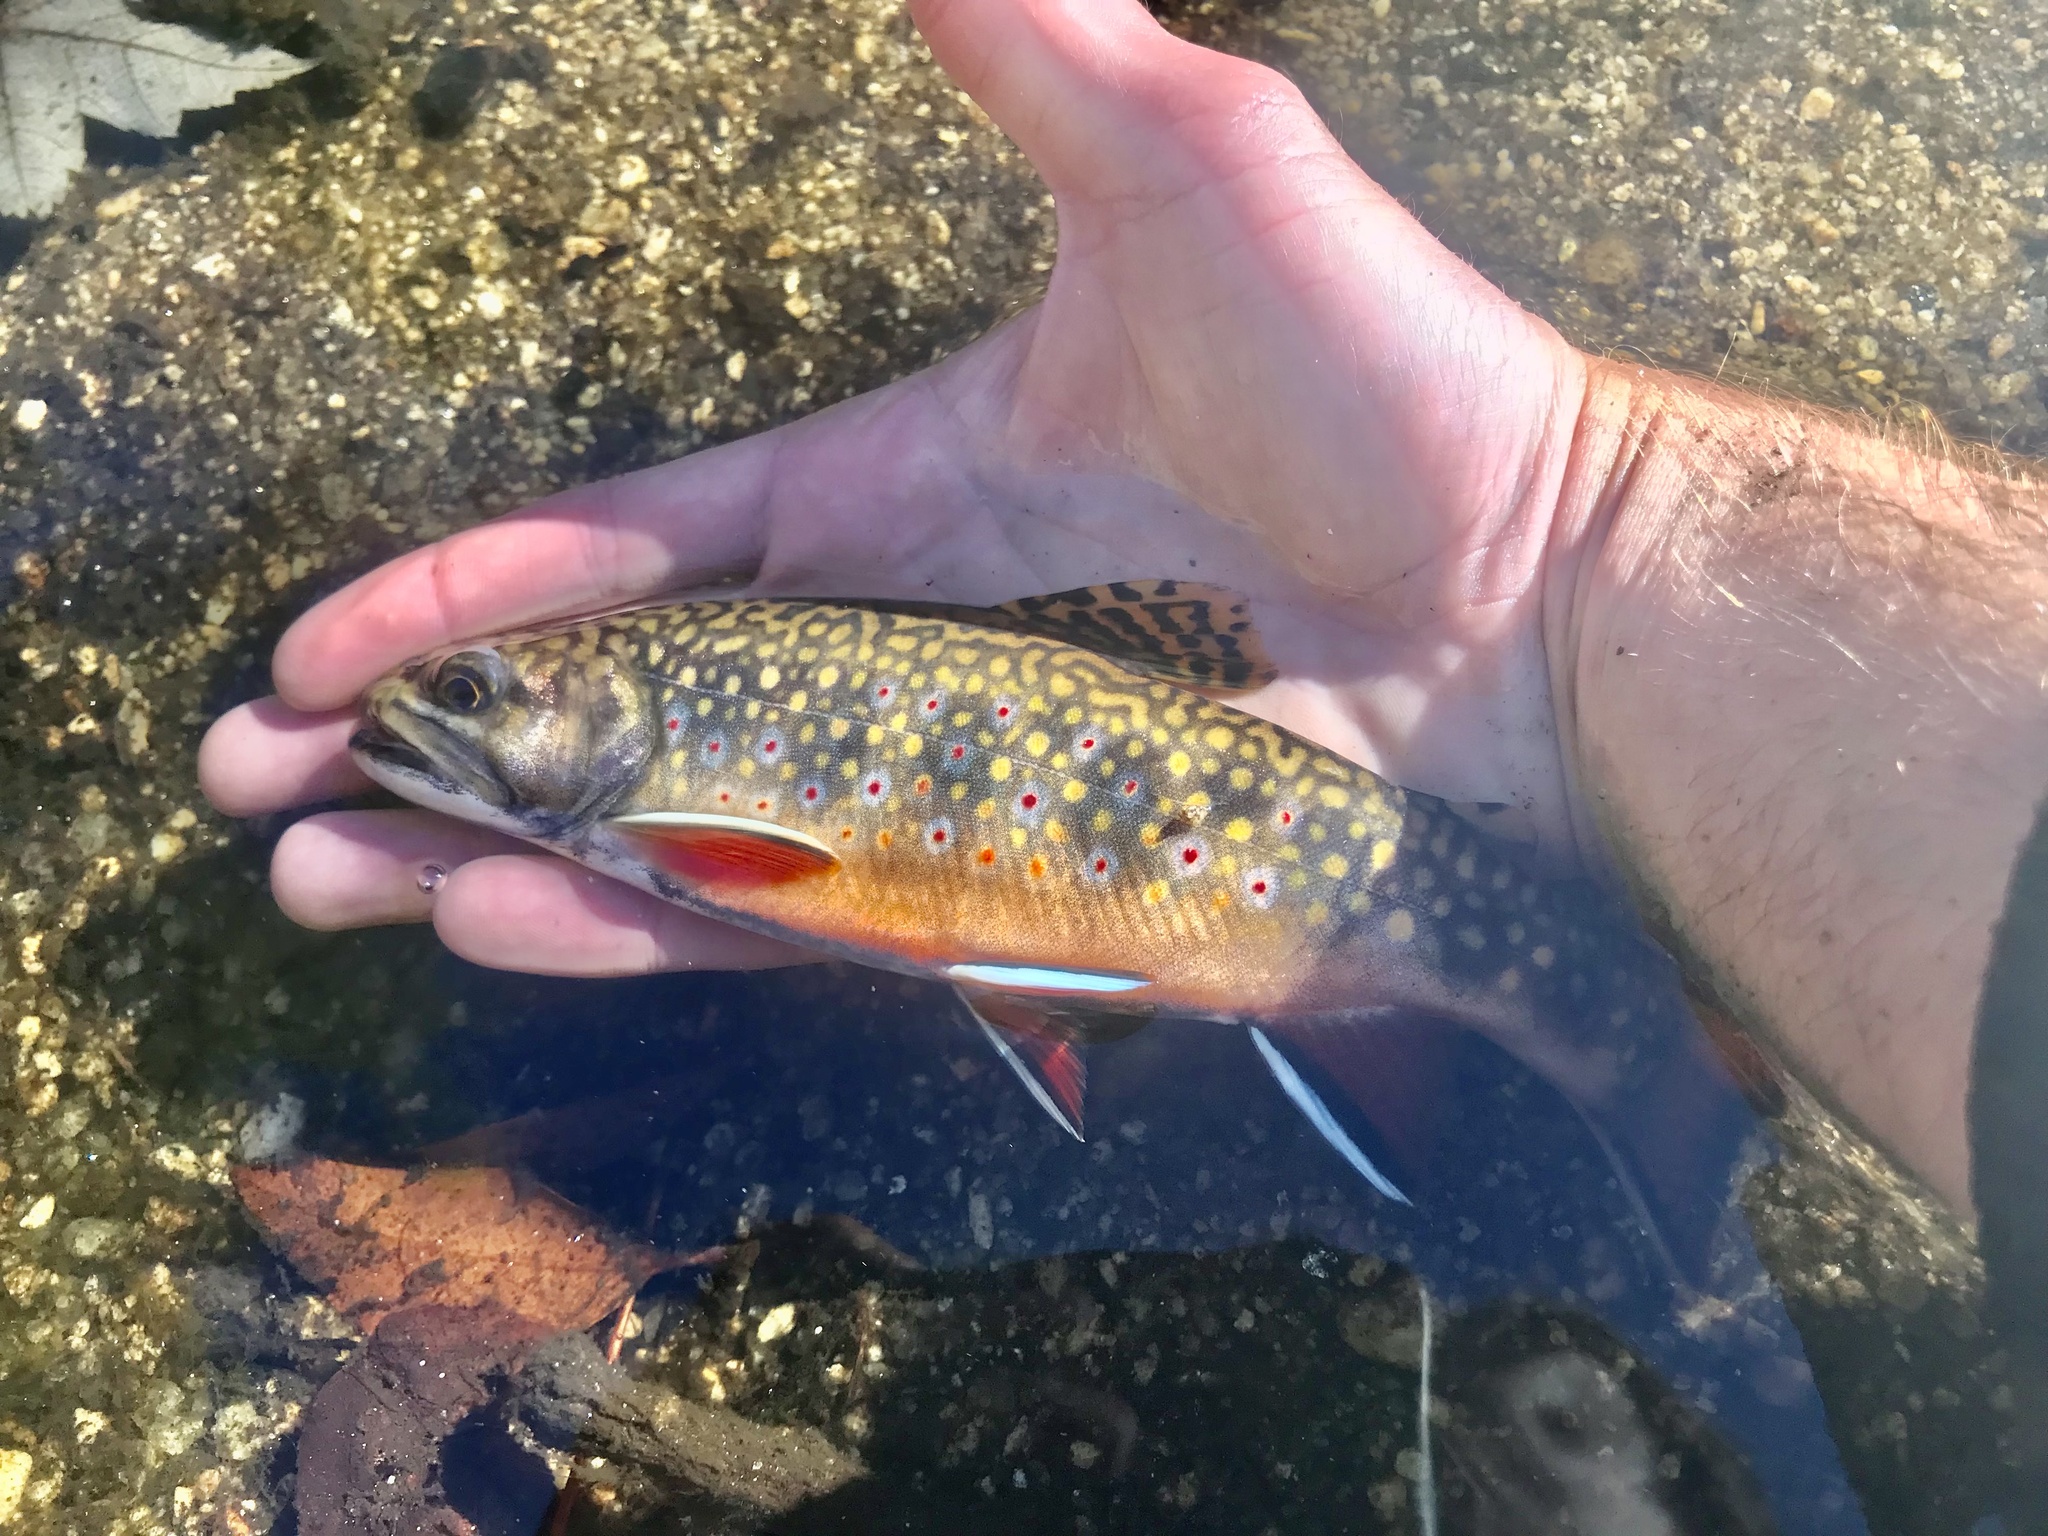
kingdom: Animalia
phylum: Chordata
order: Salmoniformes
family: Salmonidae
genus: Salvelinus
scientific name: Salvelinus fontinalis
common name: Brook trout
